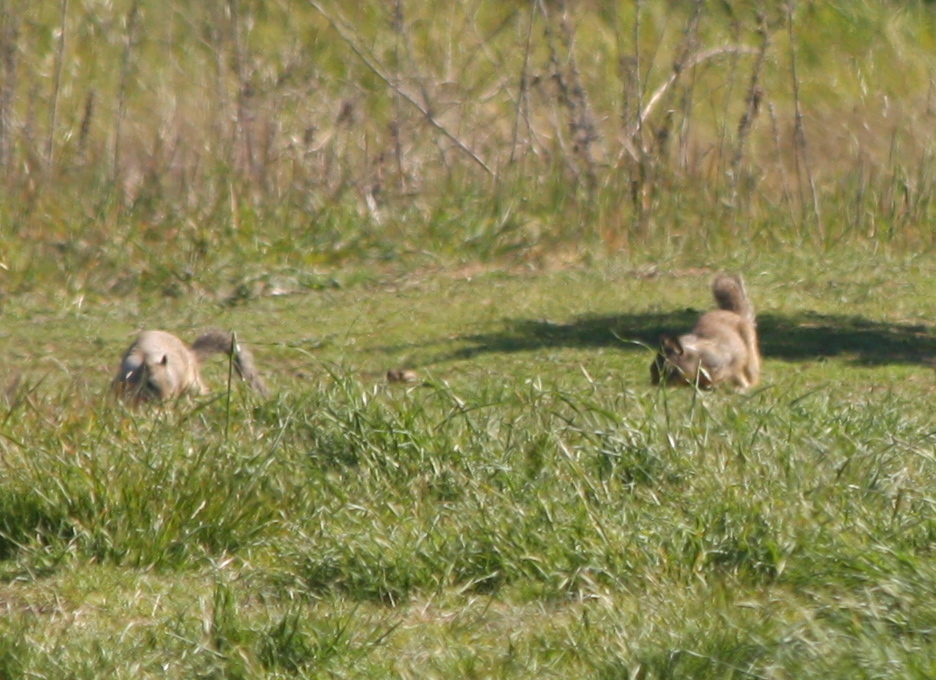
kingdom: Animalia
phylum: Chordata
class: Mammalia
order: Rodentia
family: Sciuridae
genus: Otospermophilus
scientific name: Otospermophilus beecheyi
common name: California ground squirrel
